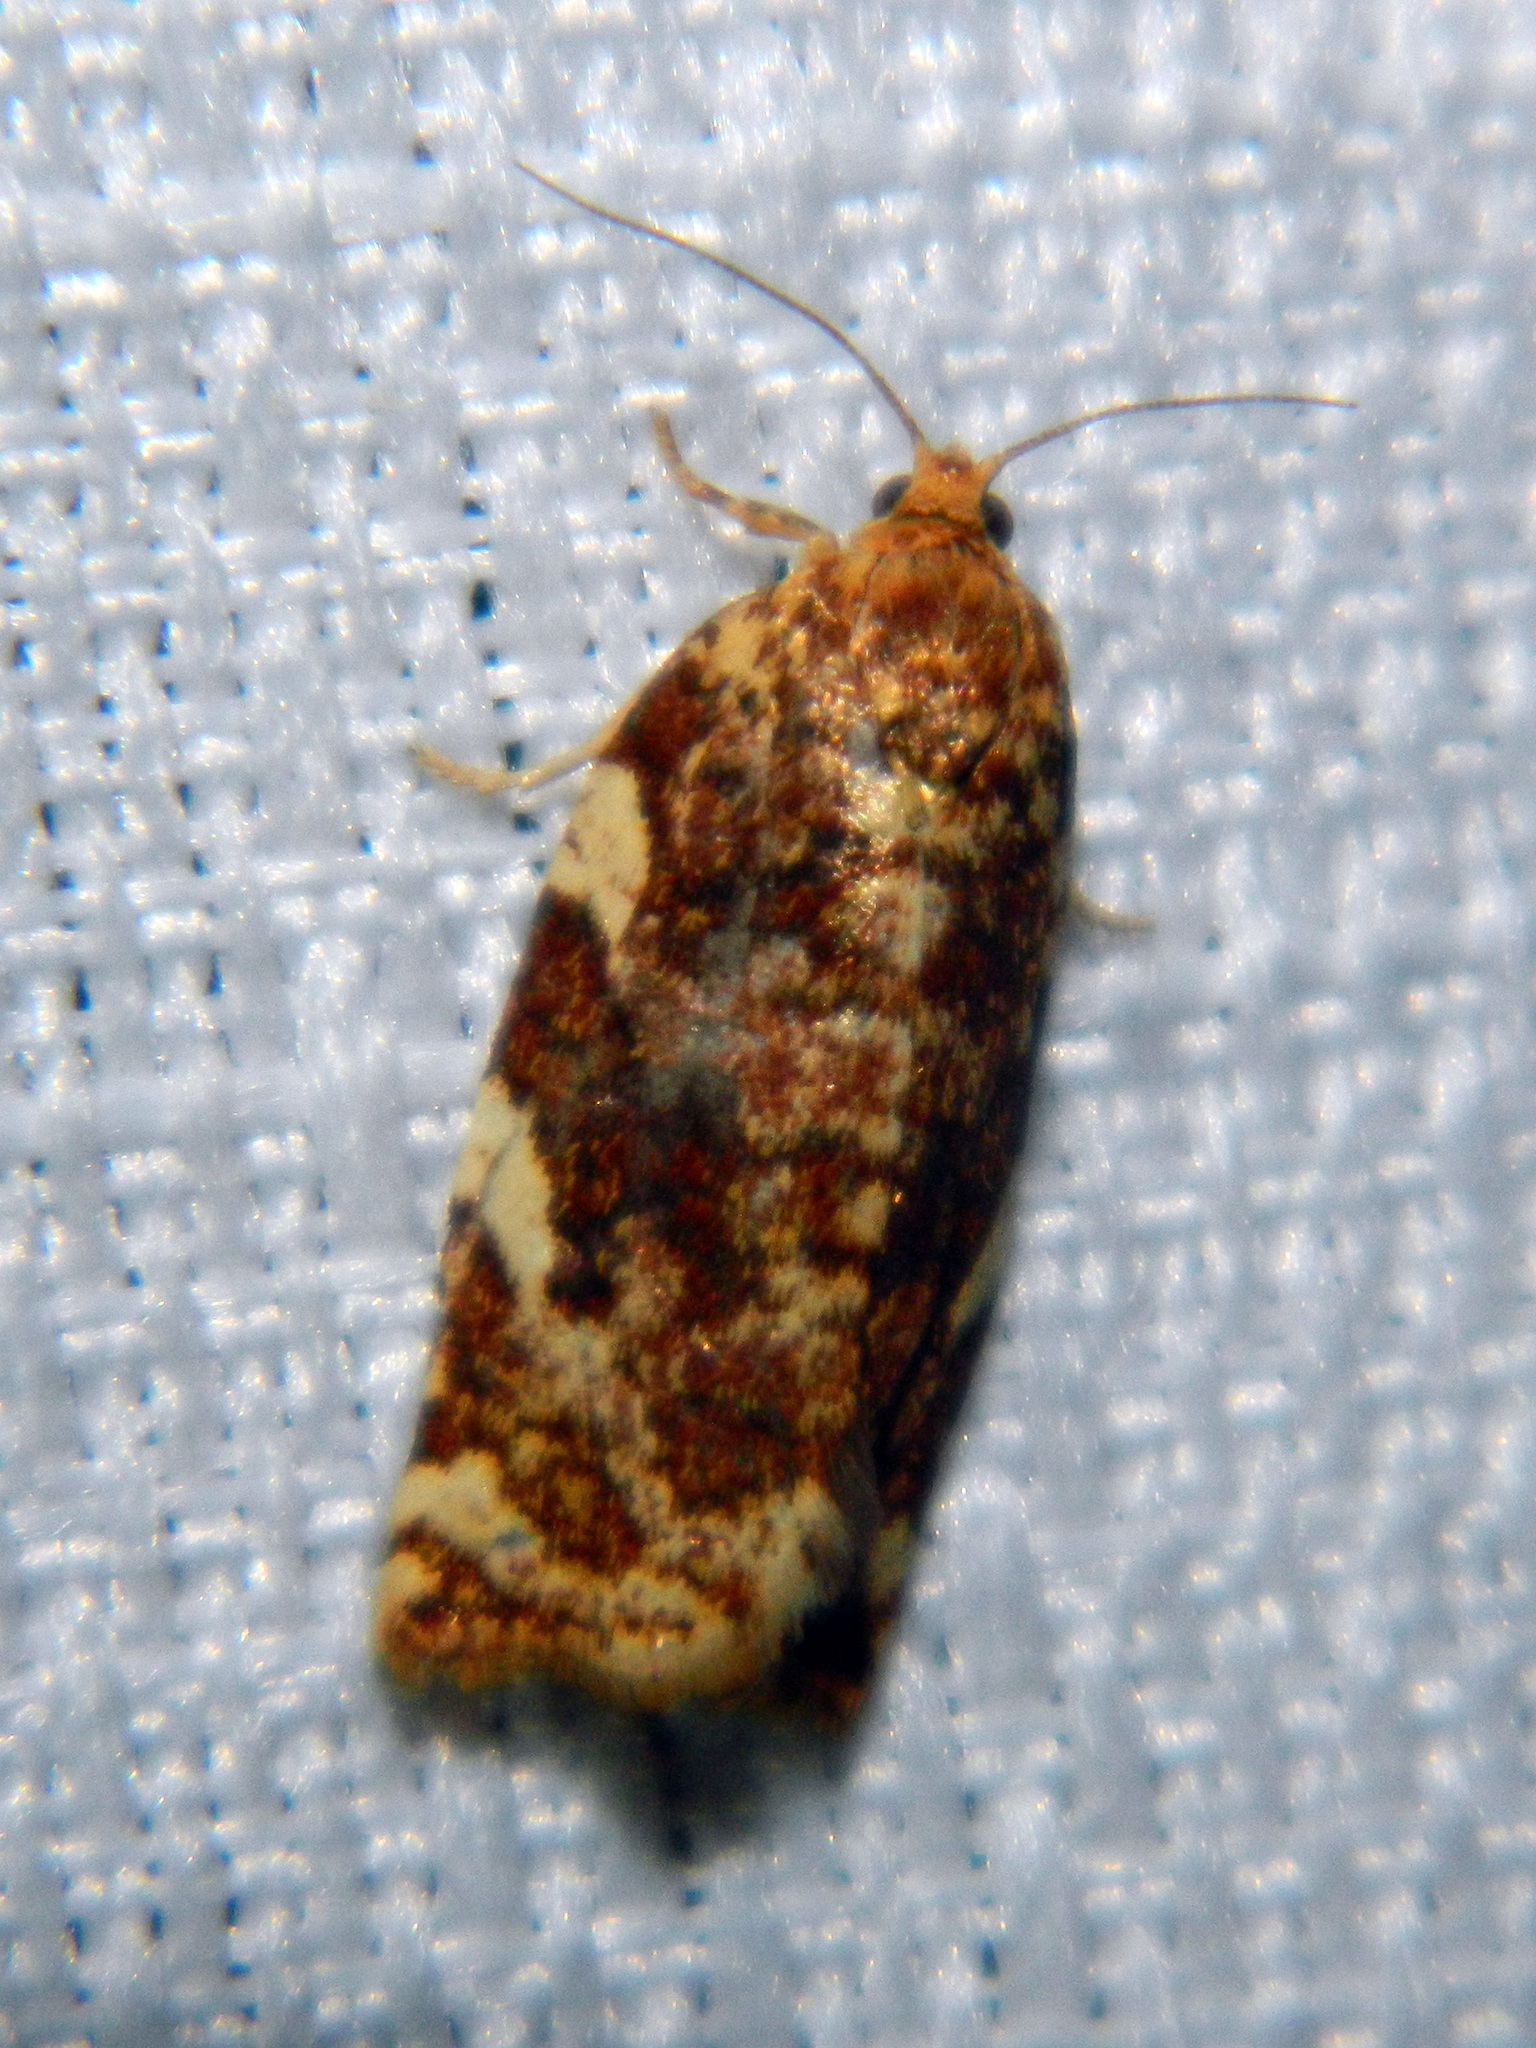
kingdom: Animalia
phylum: Arthropoda
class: Insecta
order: Lepidoptera
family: Tortricidae
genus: Archips
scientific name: Archips argyrospila
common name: Fruit-tree leafroller moth
